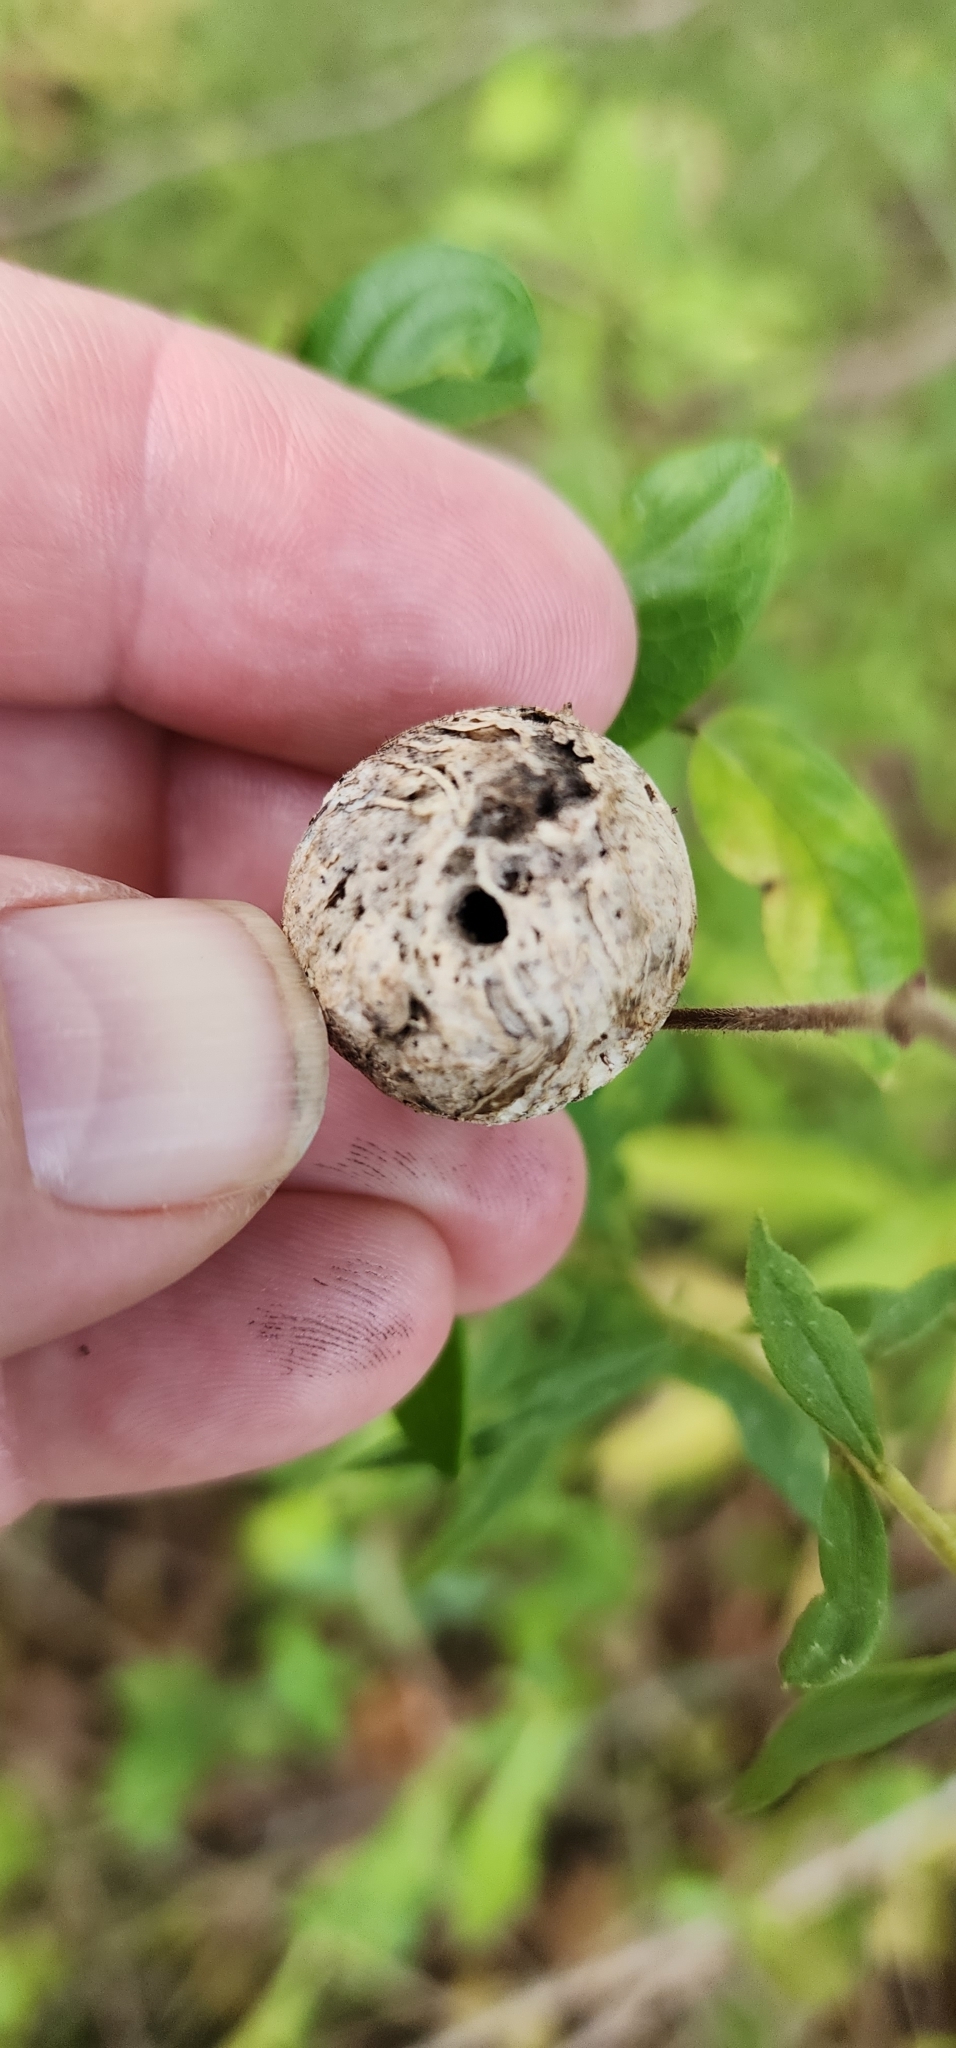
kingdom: Animalia
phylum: Arthropoda
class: Insecta
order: Diptera
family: Tephritidae
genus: Eurosta
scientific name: Eurosta solidaginis
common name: Goldenrod gall fly
